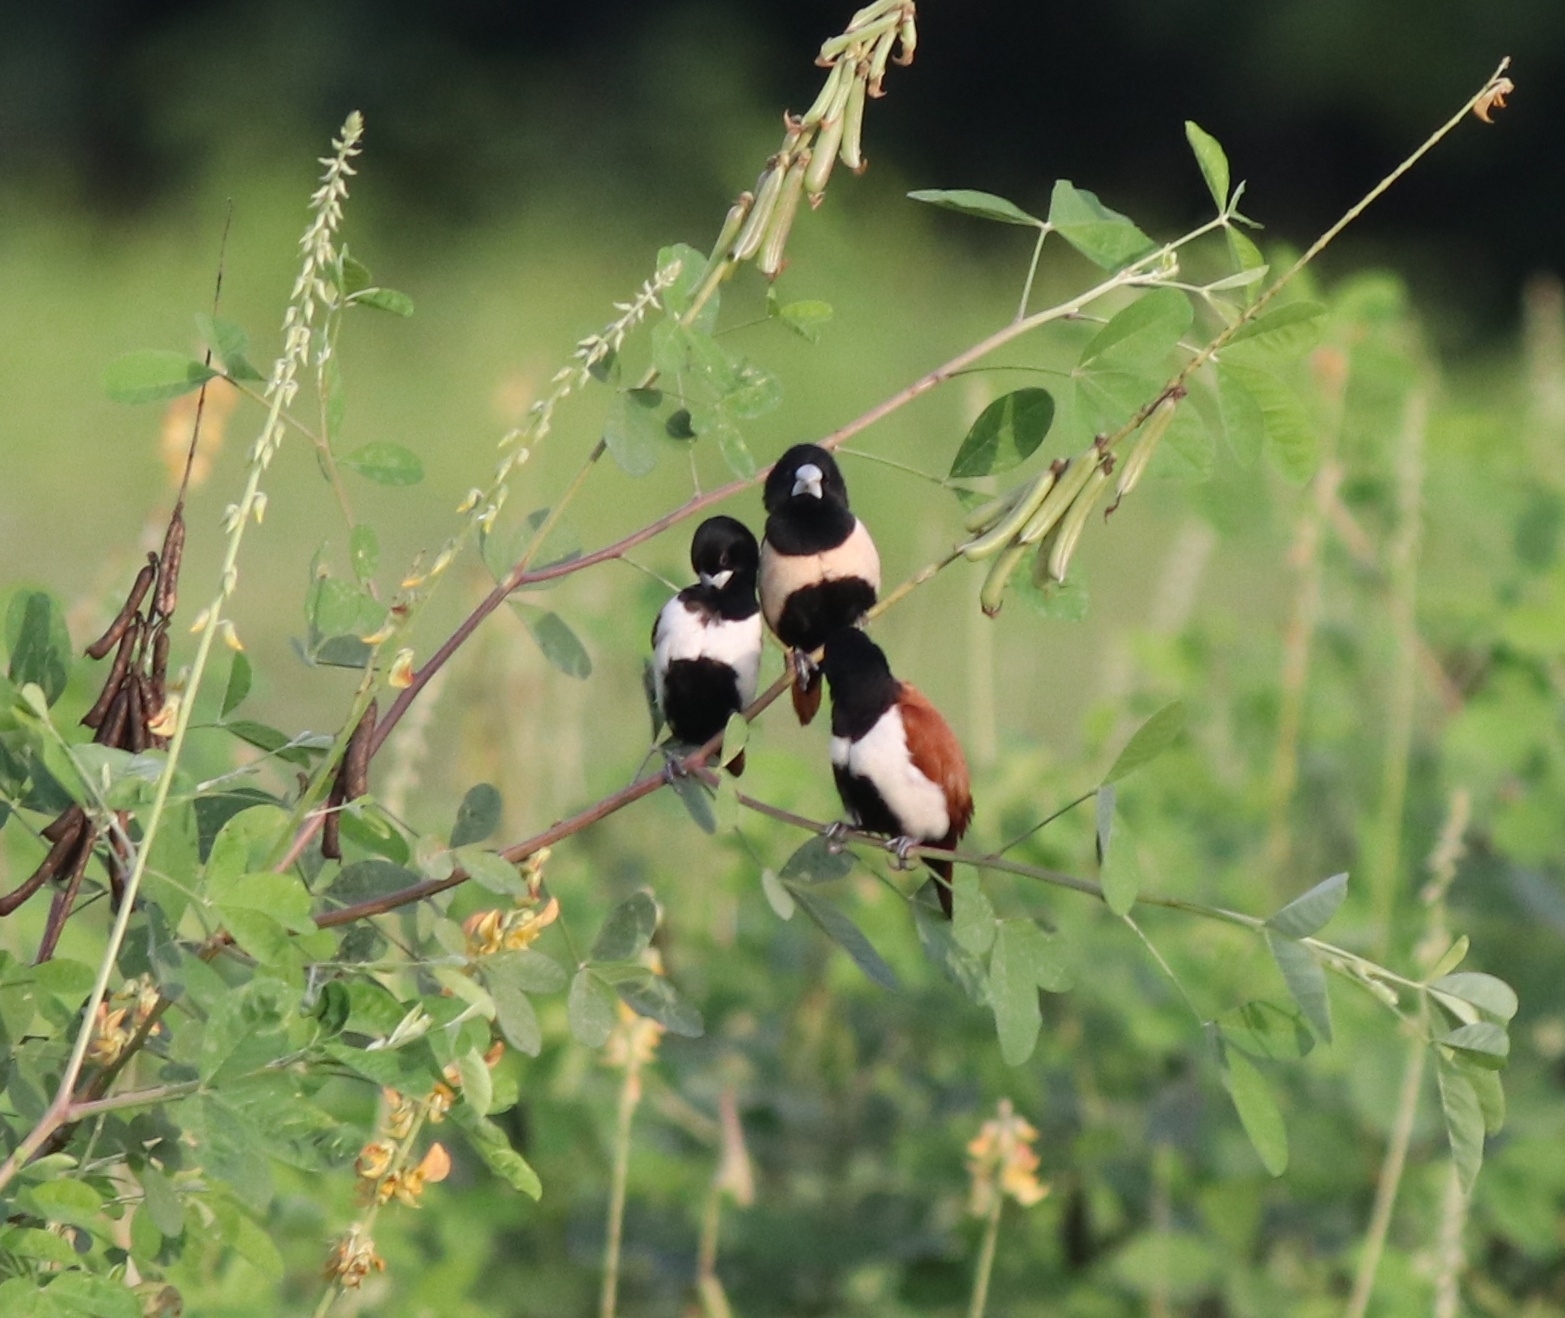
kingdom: Animalia
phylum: Chordata
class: Aves
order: Passeriformes
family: Estrildidae
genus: Lonchura
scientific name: Lonchura malacca
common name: Tricolored munia
